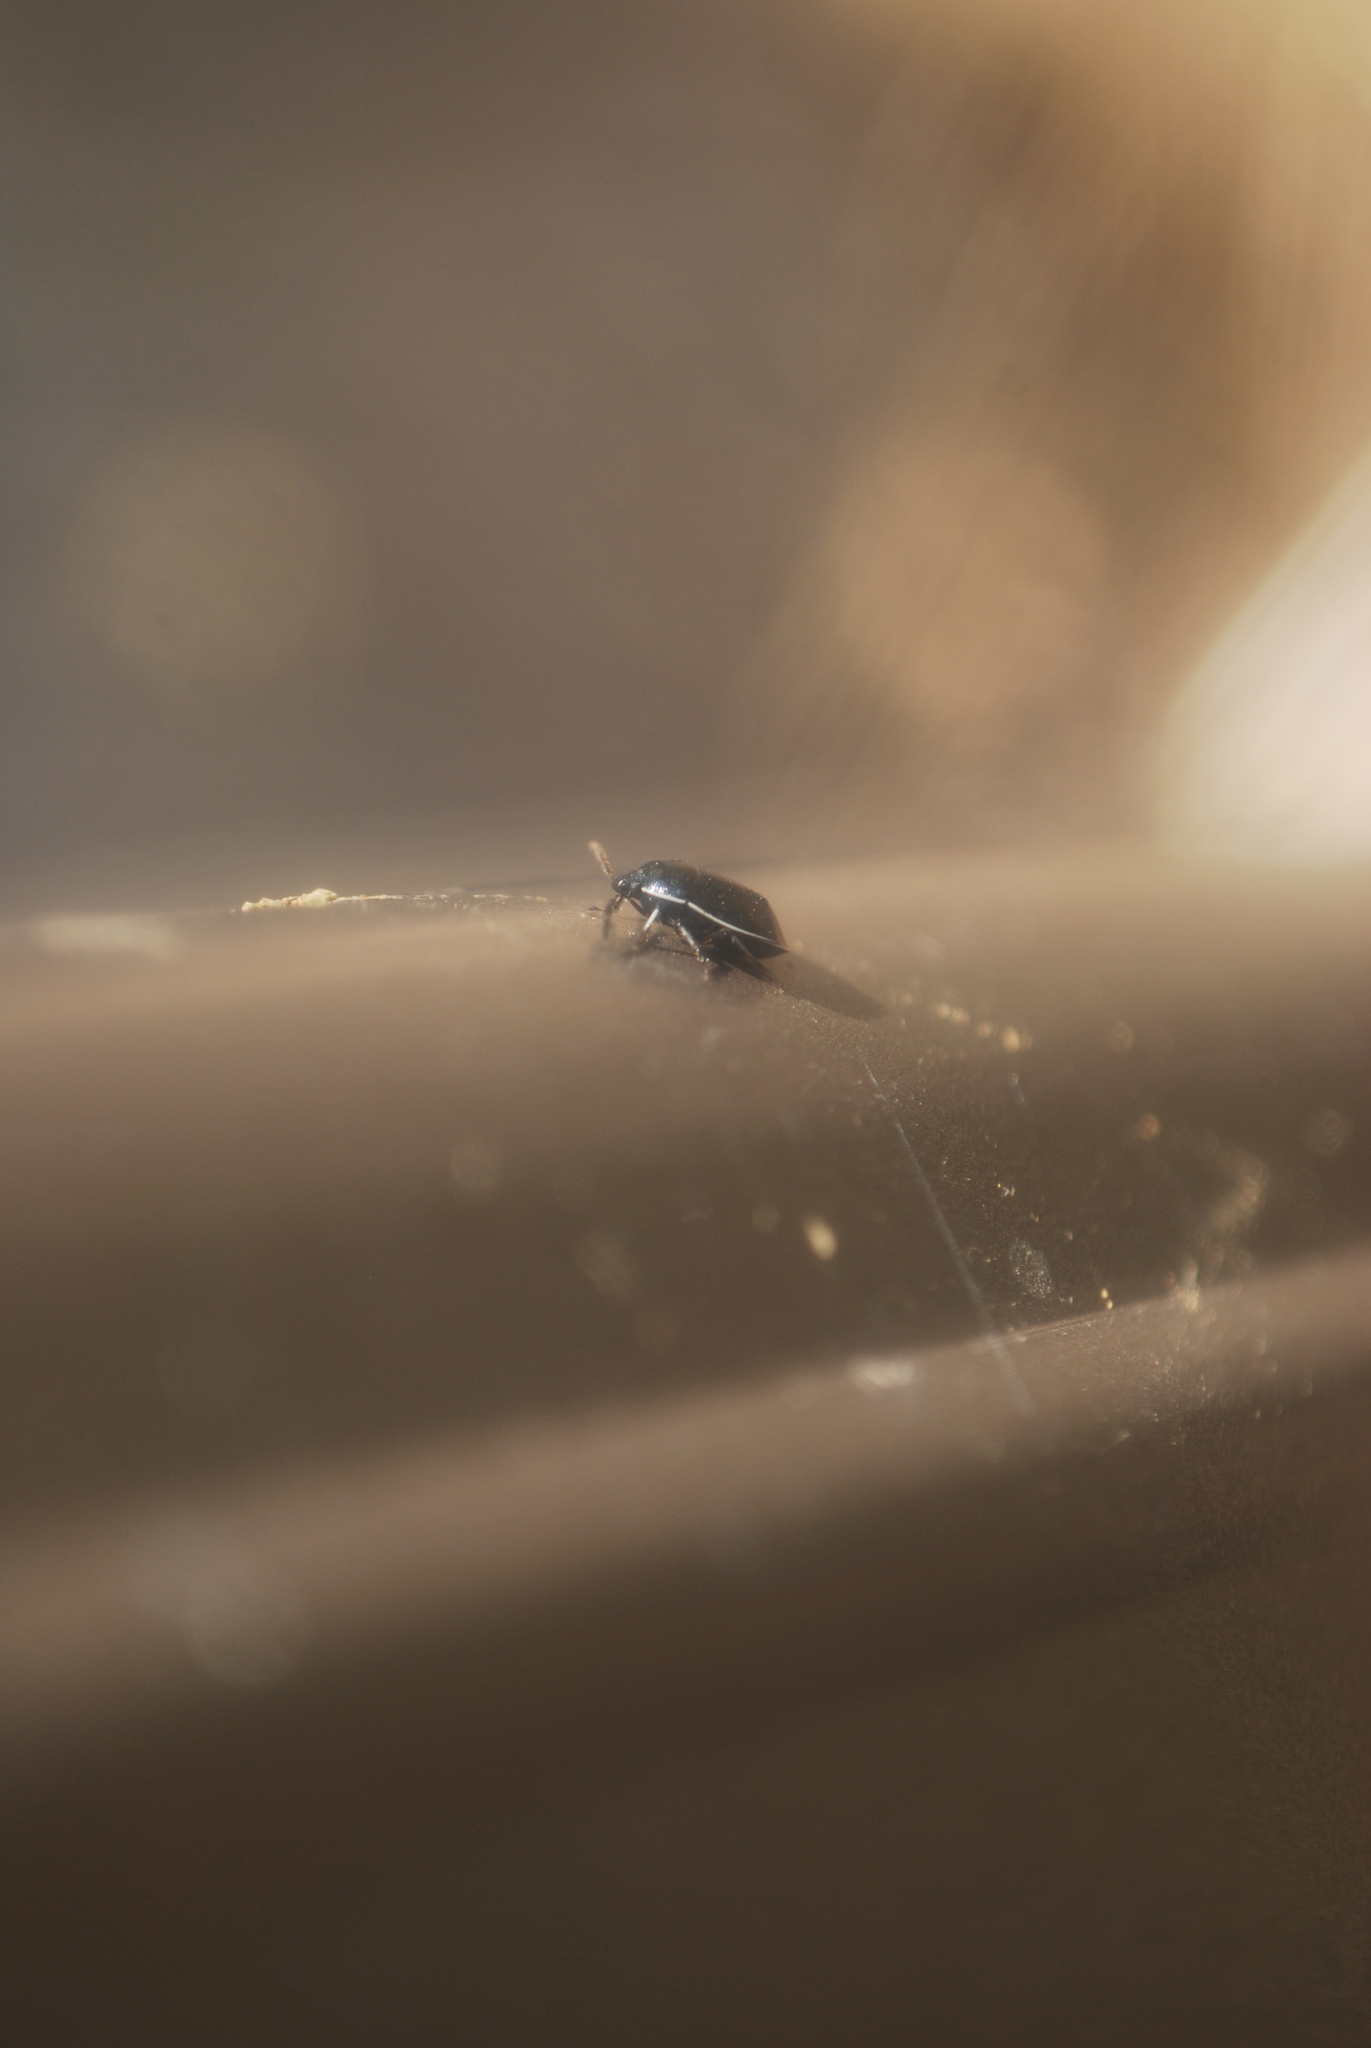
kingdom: Animalia
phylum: Arthropoda
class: Insecta
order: Hemiptera
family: Cydnidae
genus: Sehirus
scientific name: Sehirus cinctus
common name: White-margined burrower bug
